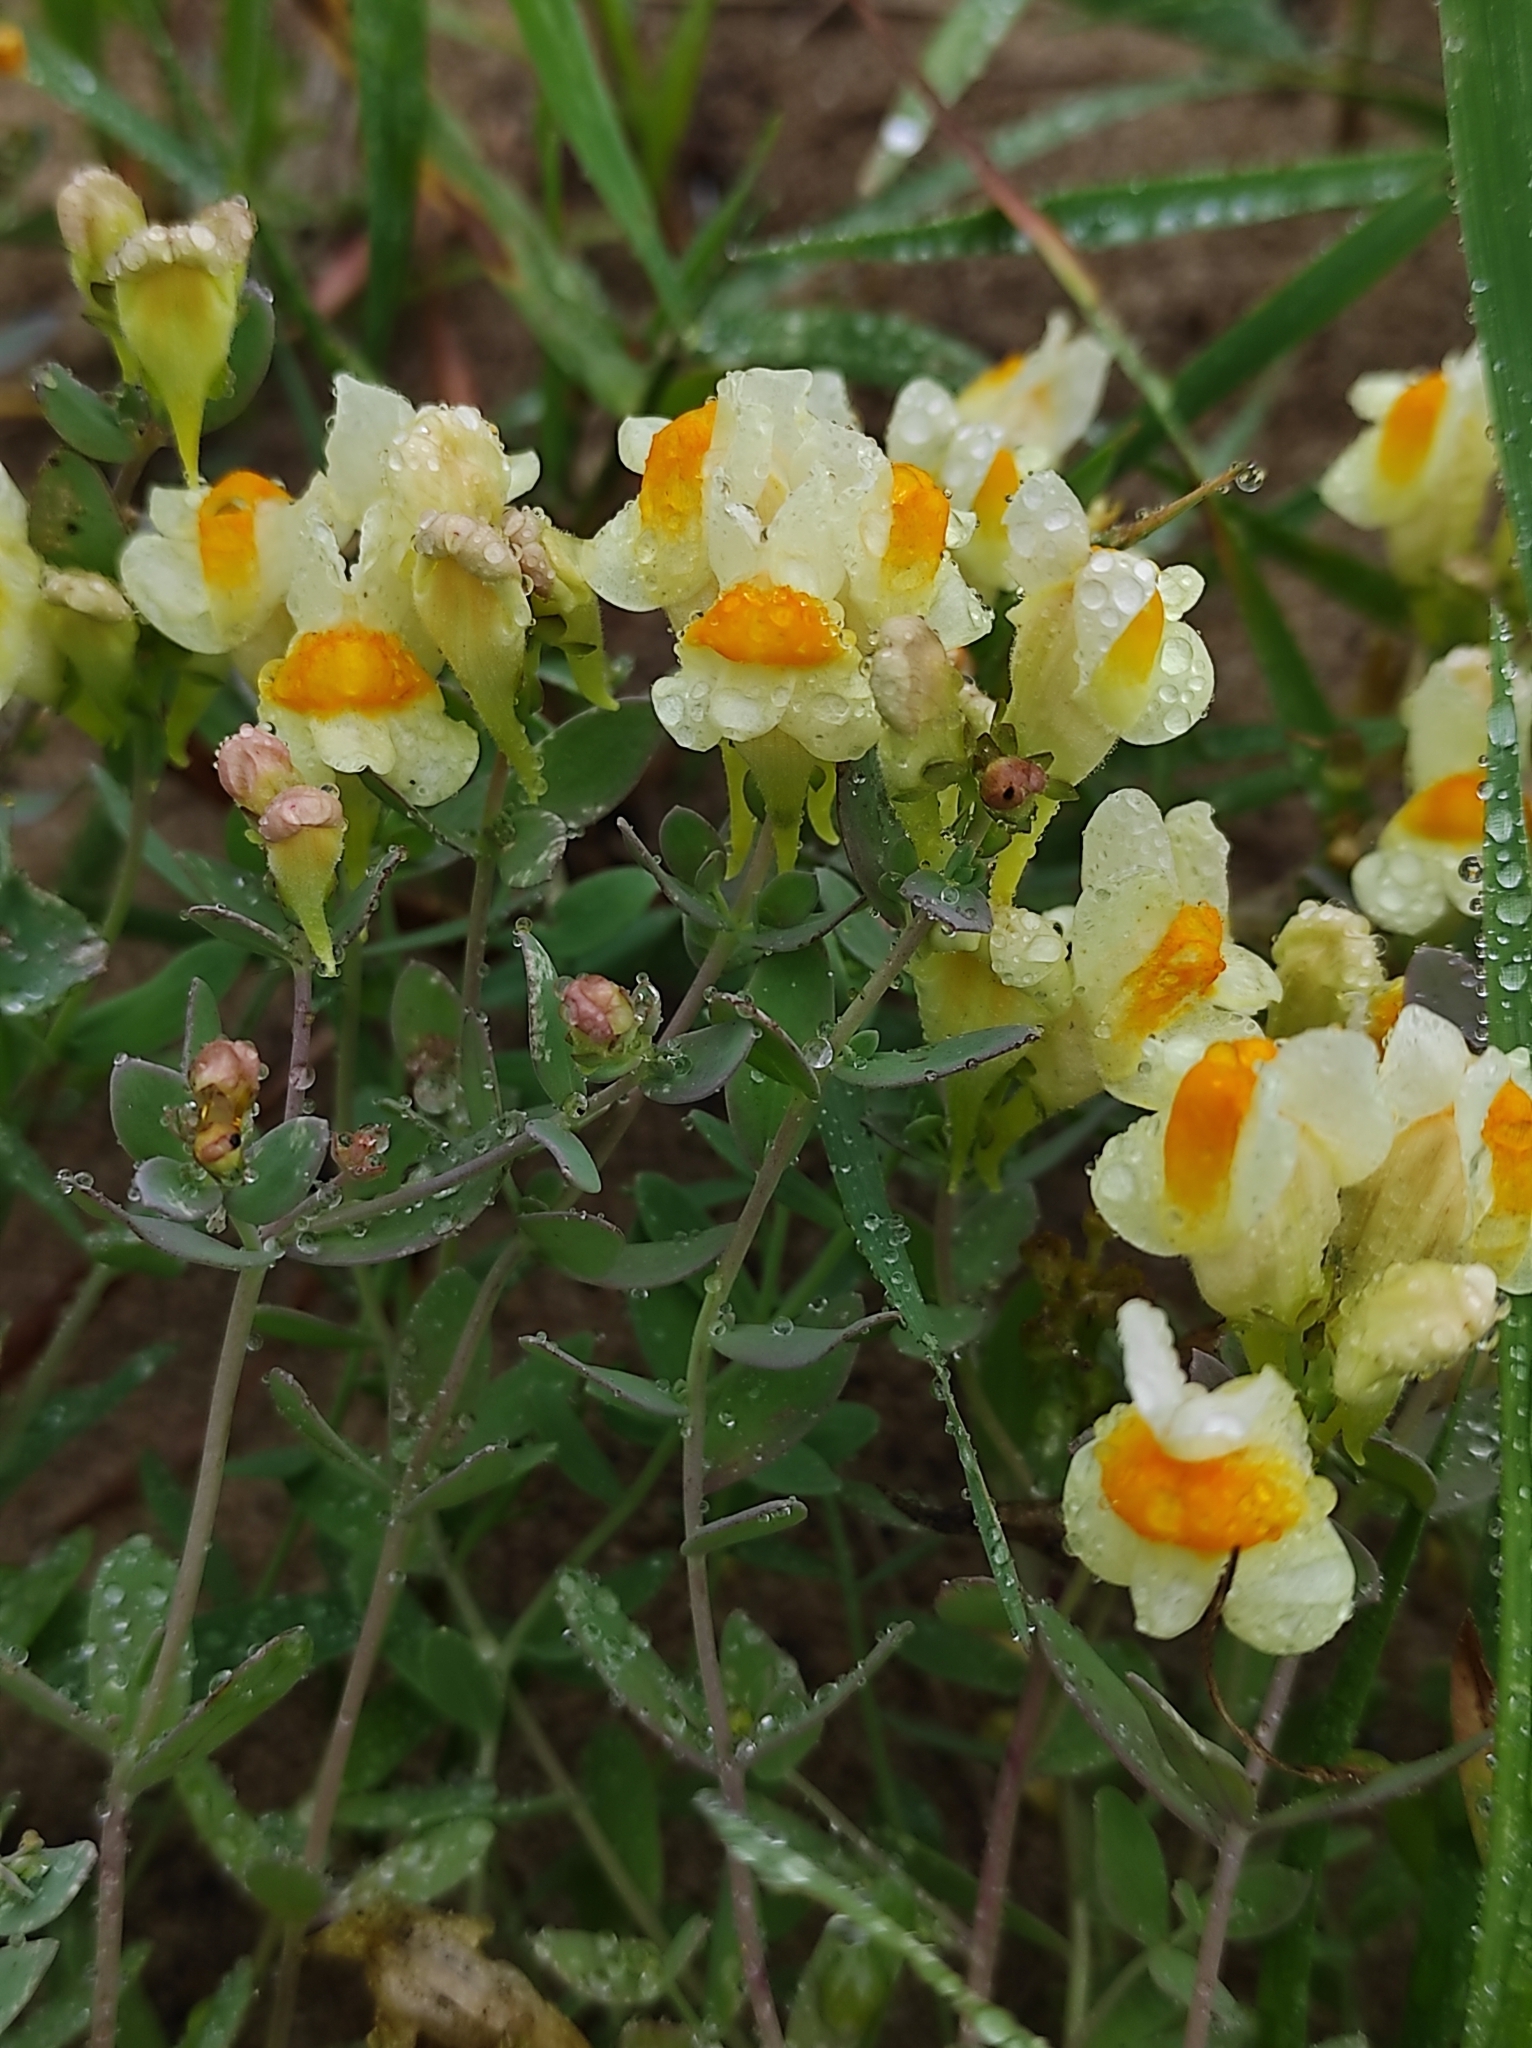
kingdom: Plantae
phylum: Tracheophyta
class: Magnoliopsida
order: Lamiales
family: Plantaginaceae
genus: Linaria
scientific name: Linaria japonica
